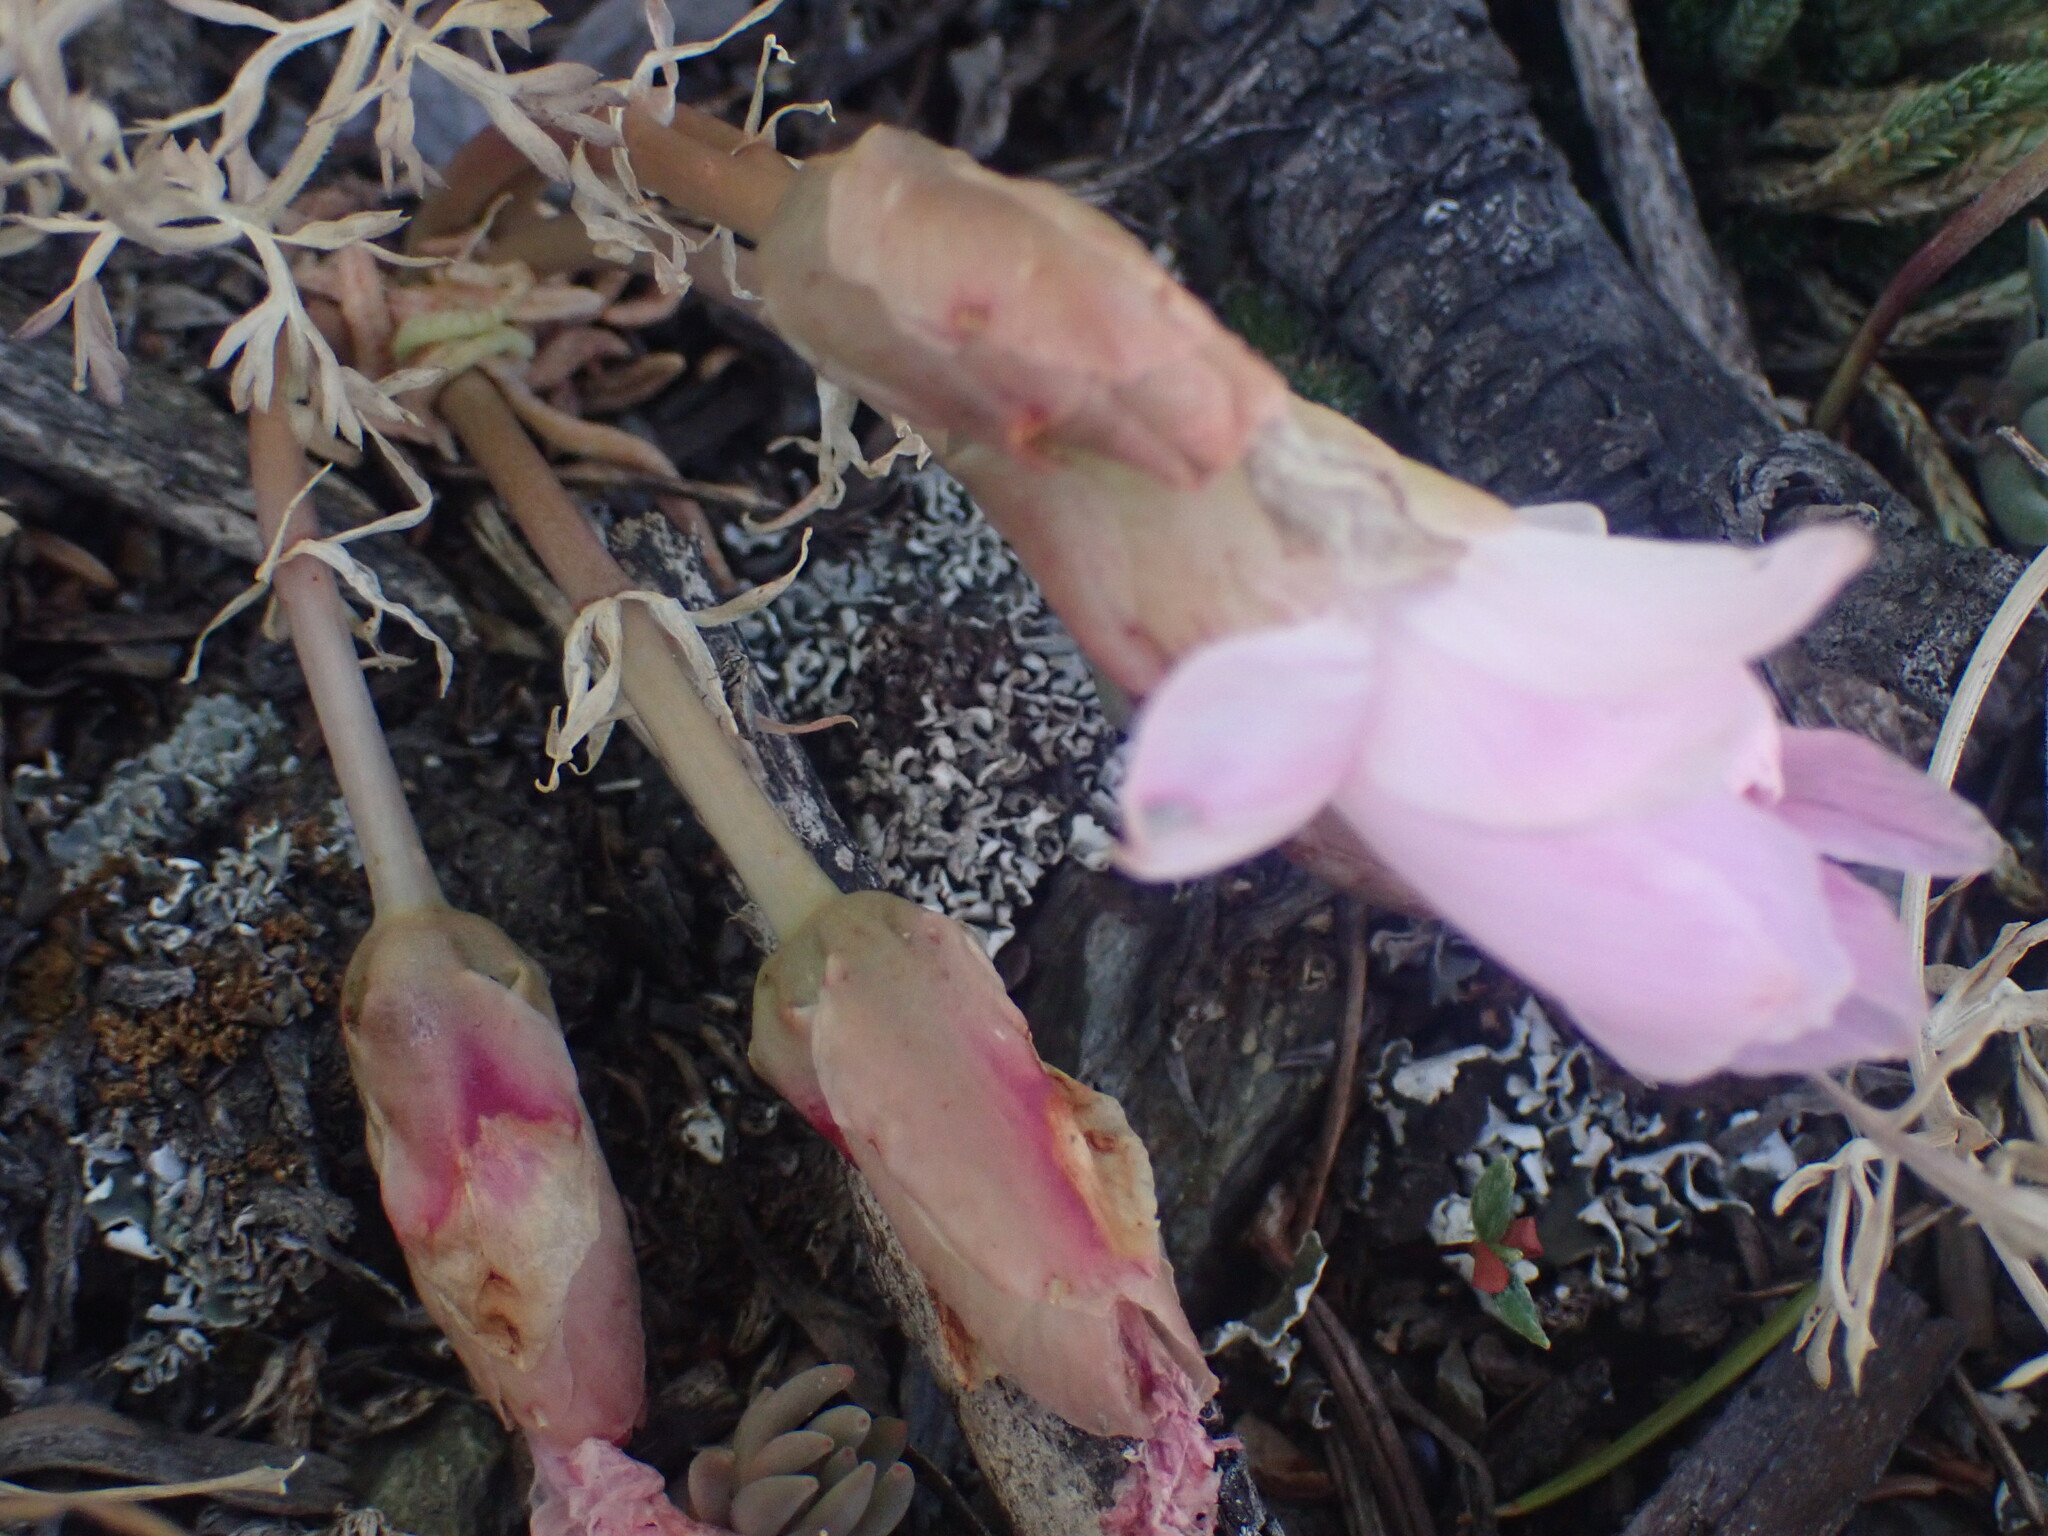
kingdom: Plantae
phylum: Tracheophyta
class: Magnoliopsida
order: Caryophyllales
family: Montiaceae
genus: Lewisia
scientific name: Lewisia rediviva
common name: Bitter-root
